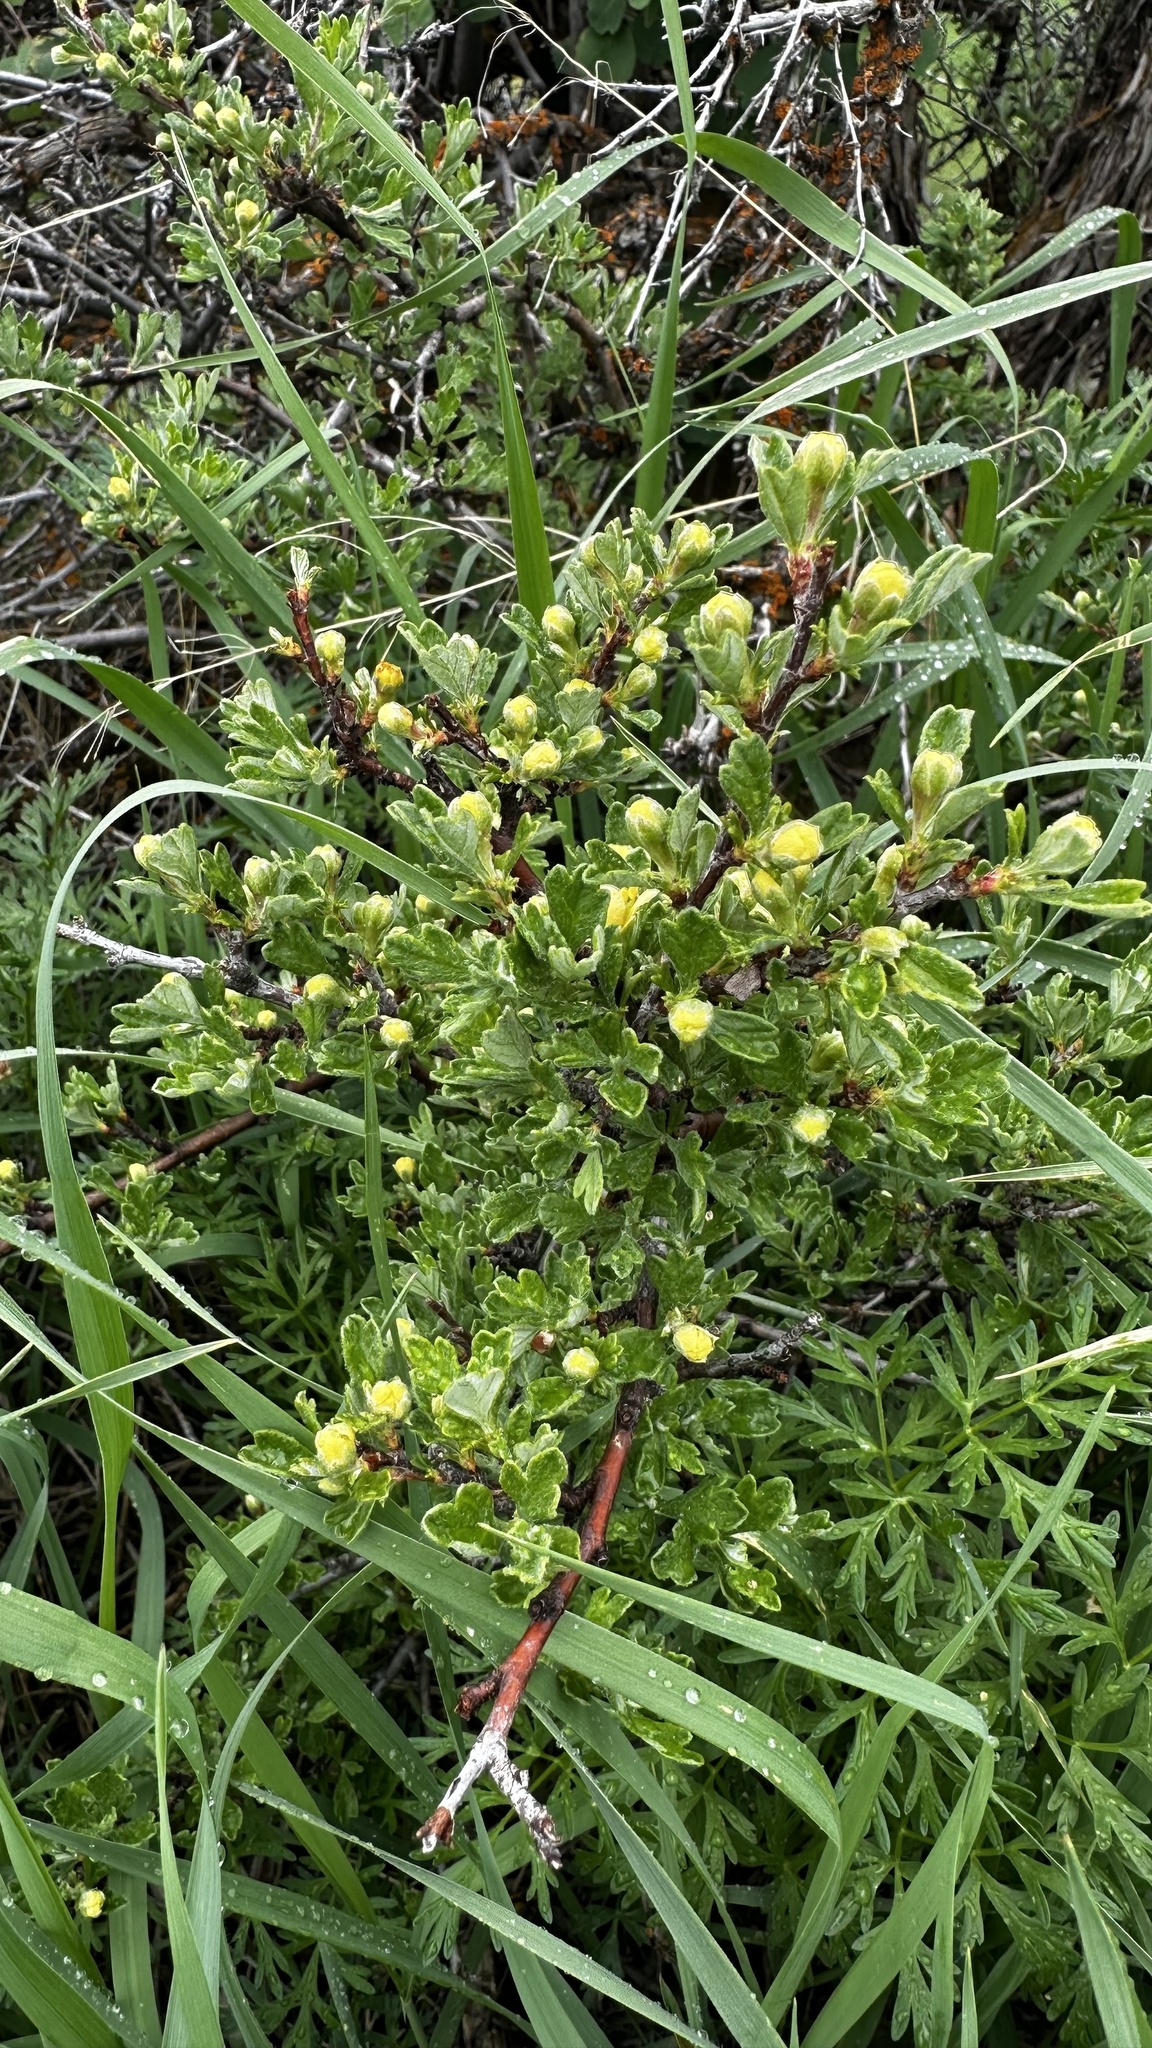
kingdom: Plantae
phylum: Tracheophyta
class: Magnoliopsida
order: Rosales
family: Rosaceae
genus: Purshia
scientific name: Purshia tridentata
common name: Antelope bitterbrush
